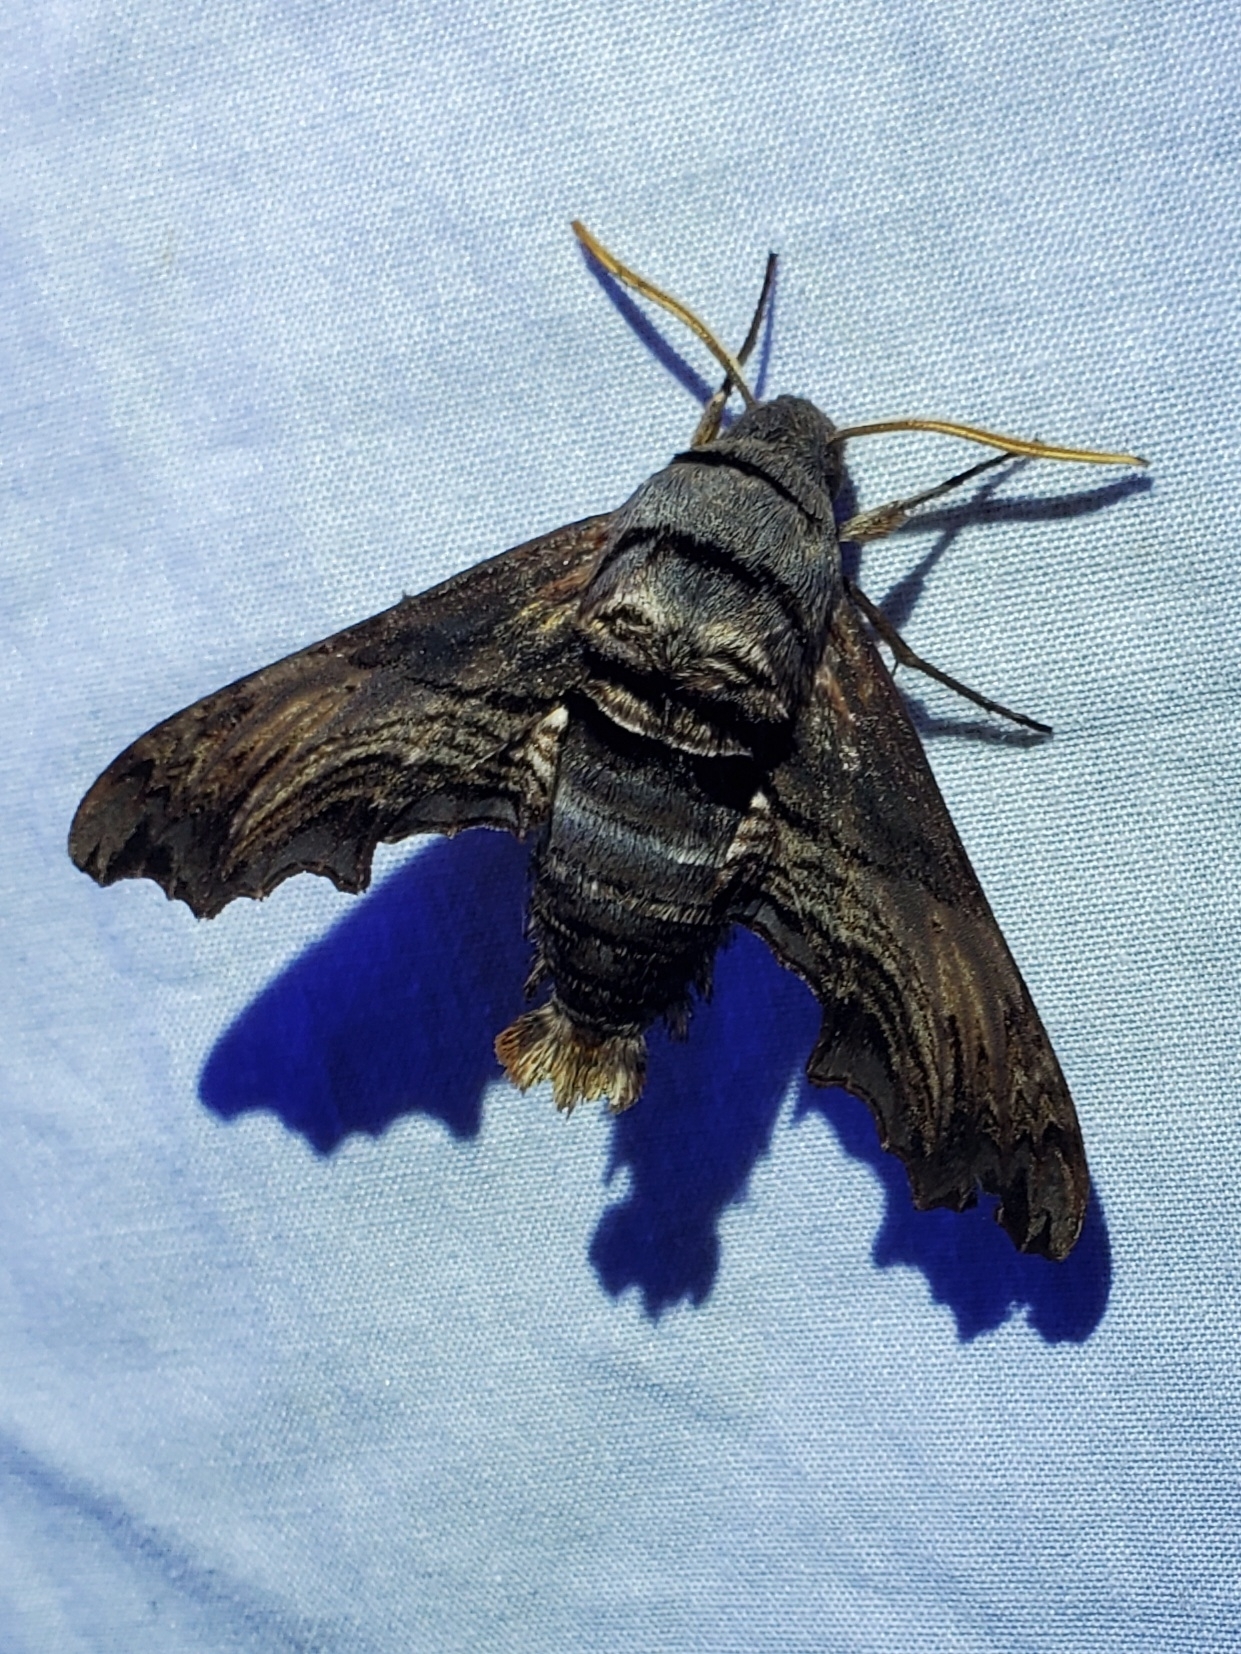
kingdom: Animalia
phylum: Arthropoda
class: Insecta
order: Lepidoptera
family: Sphingidae
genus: Sphecodina
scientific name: Sphecodina abbottii
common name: Abbott's sphinx
